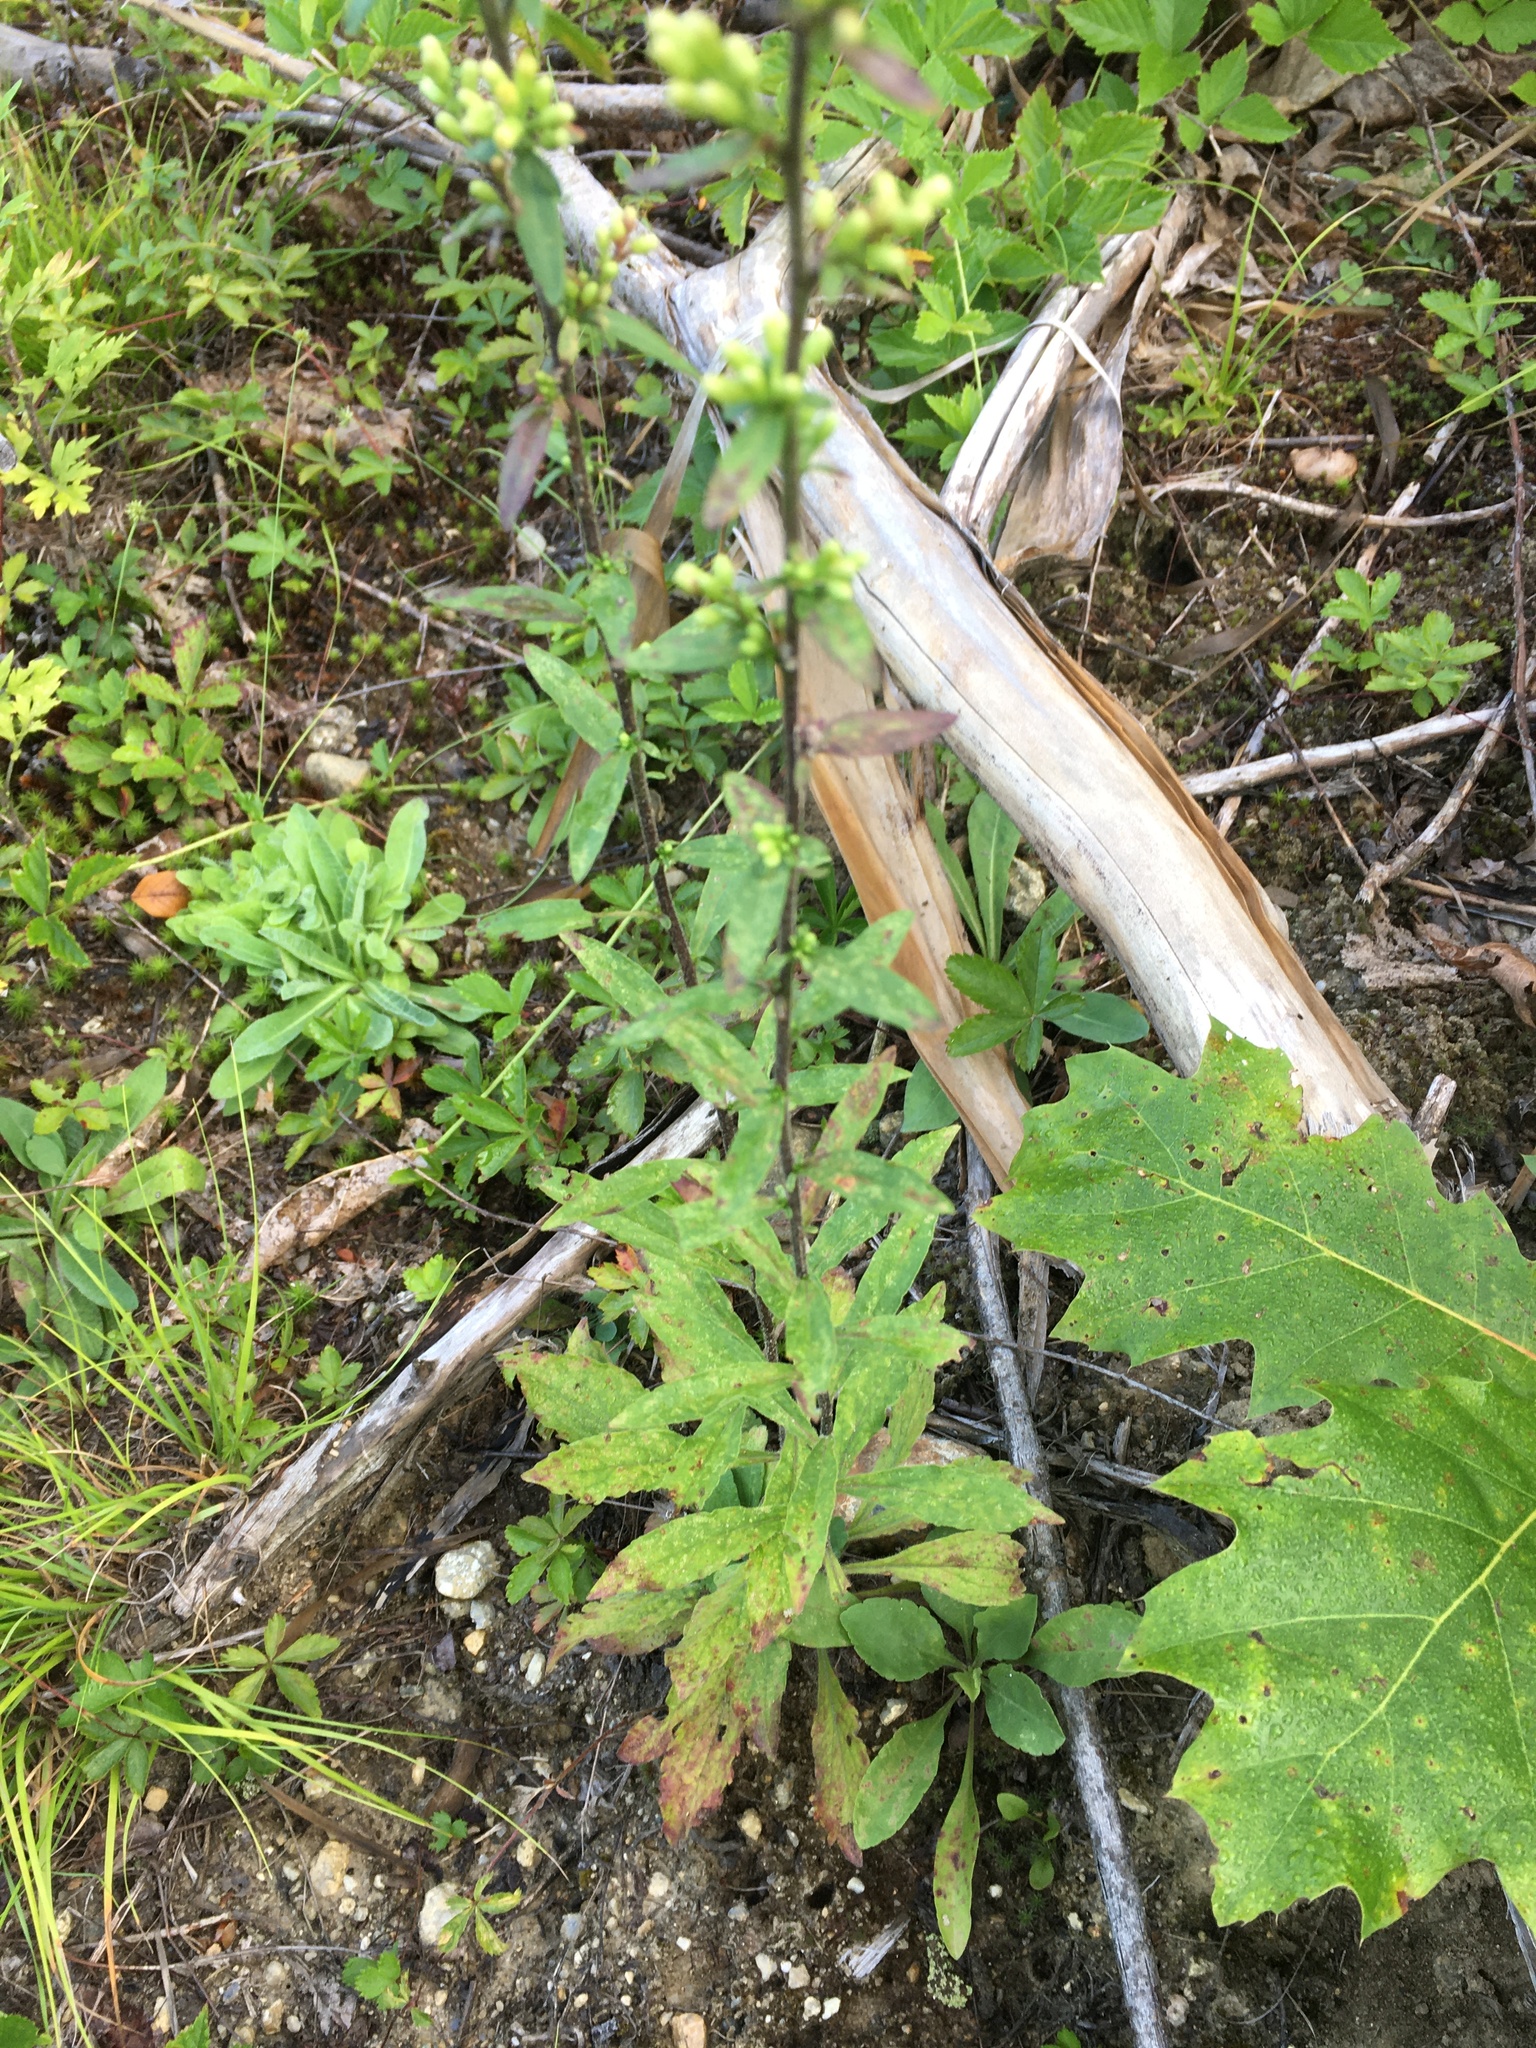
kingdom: Plantae
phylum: Tracheophyta
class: Magnoliopsida
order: Asterales
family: Asteraceae
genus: Solidago
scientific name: Solidago bicolor
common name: Silverrod
